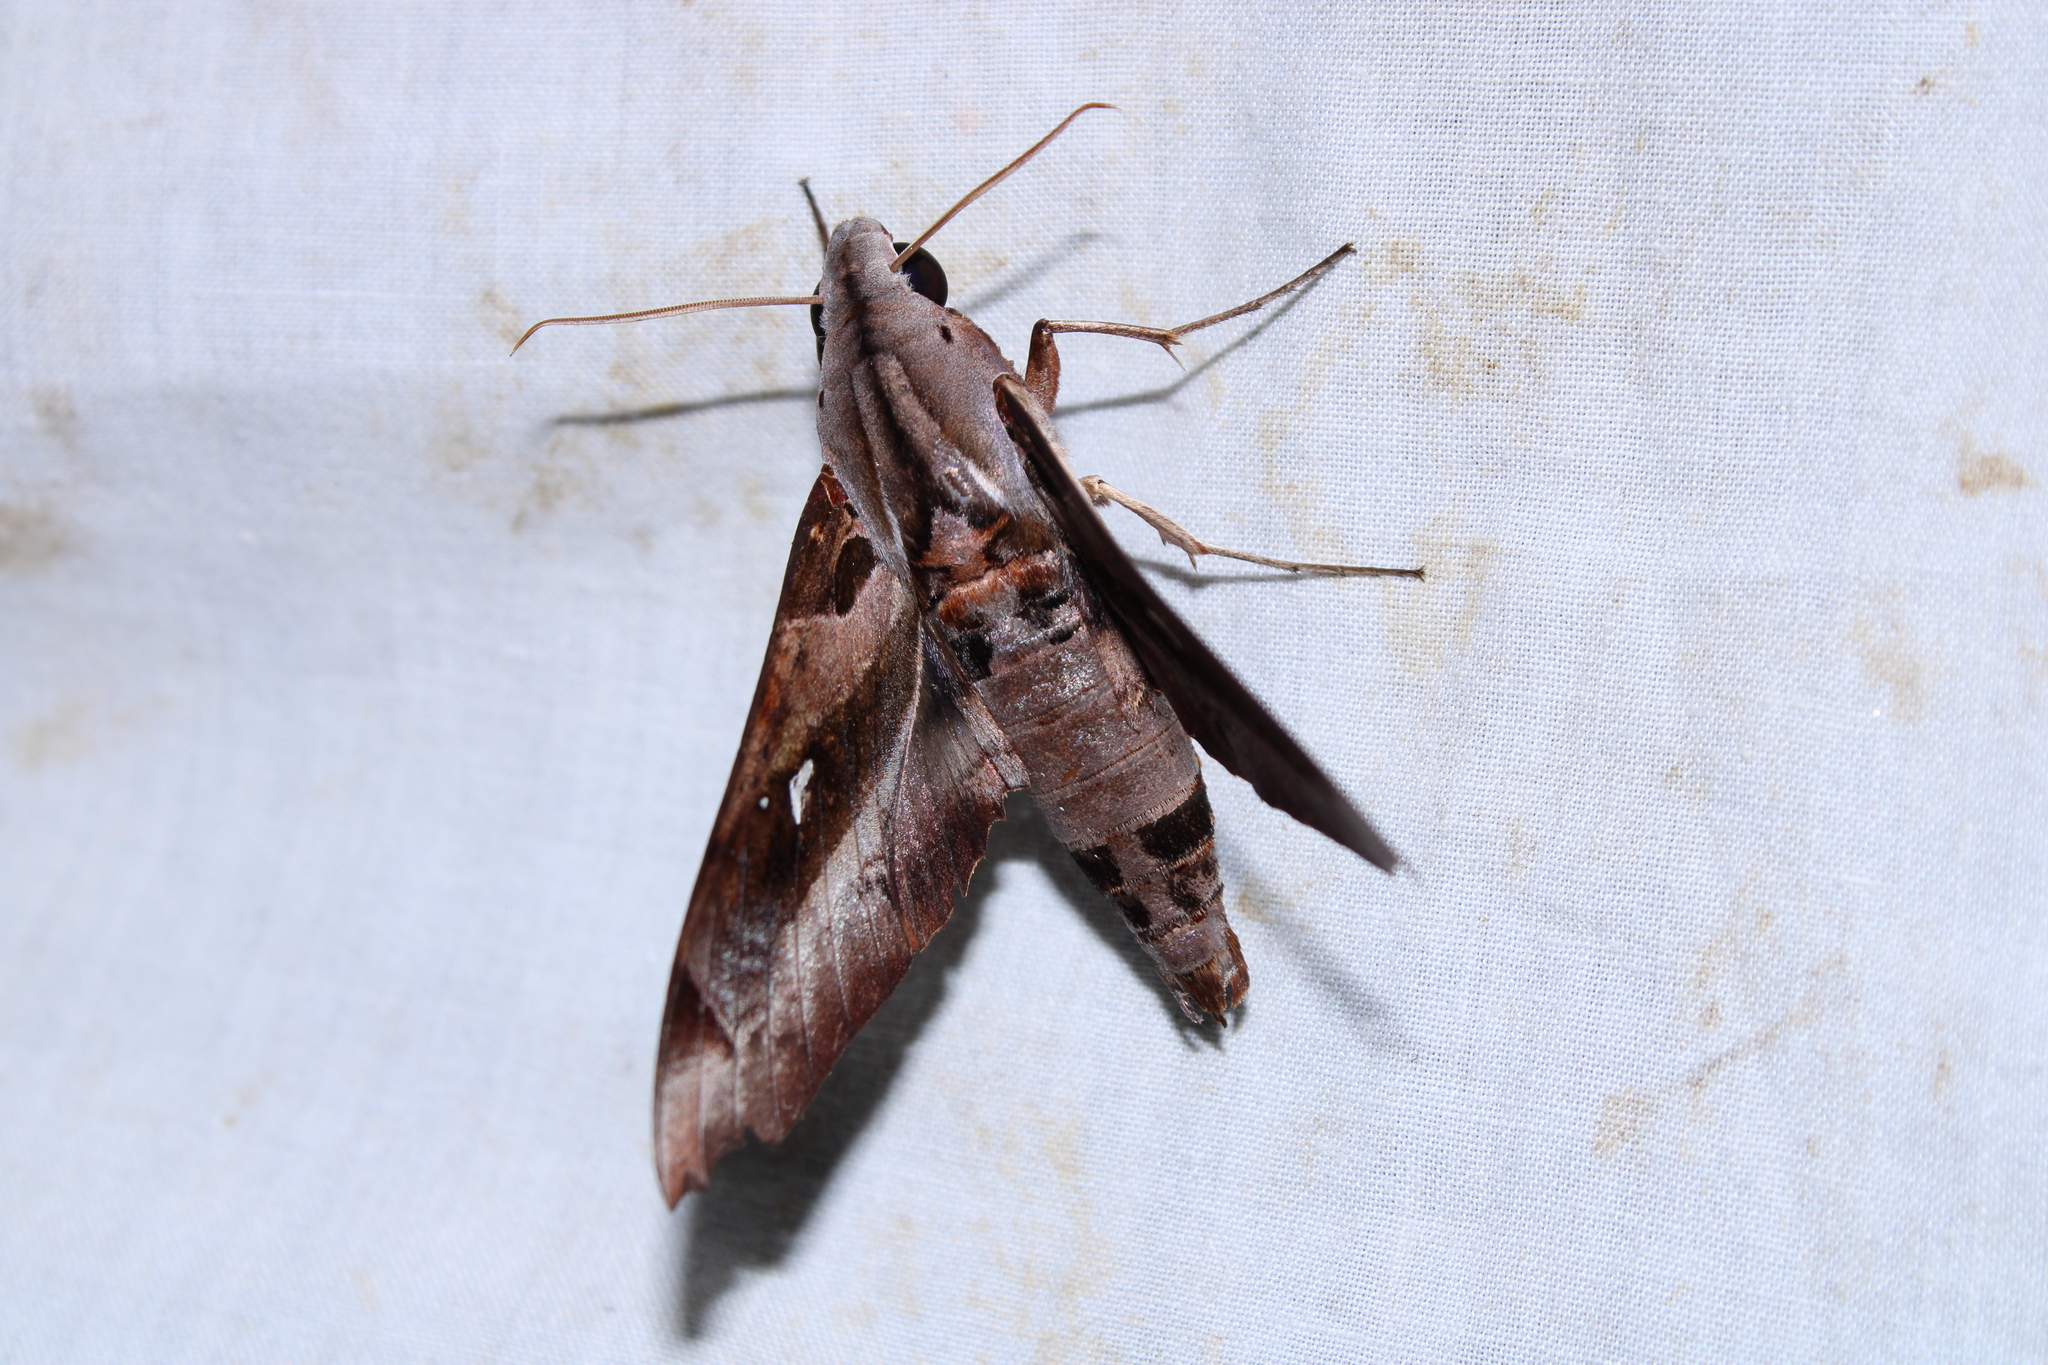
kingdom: Animalia
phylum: Arthropoda
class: Insecta
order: Lepidoptera
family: Sphingidae
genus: Madoryx
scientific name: Madoryx plutonius
